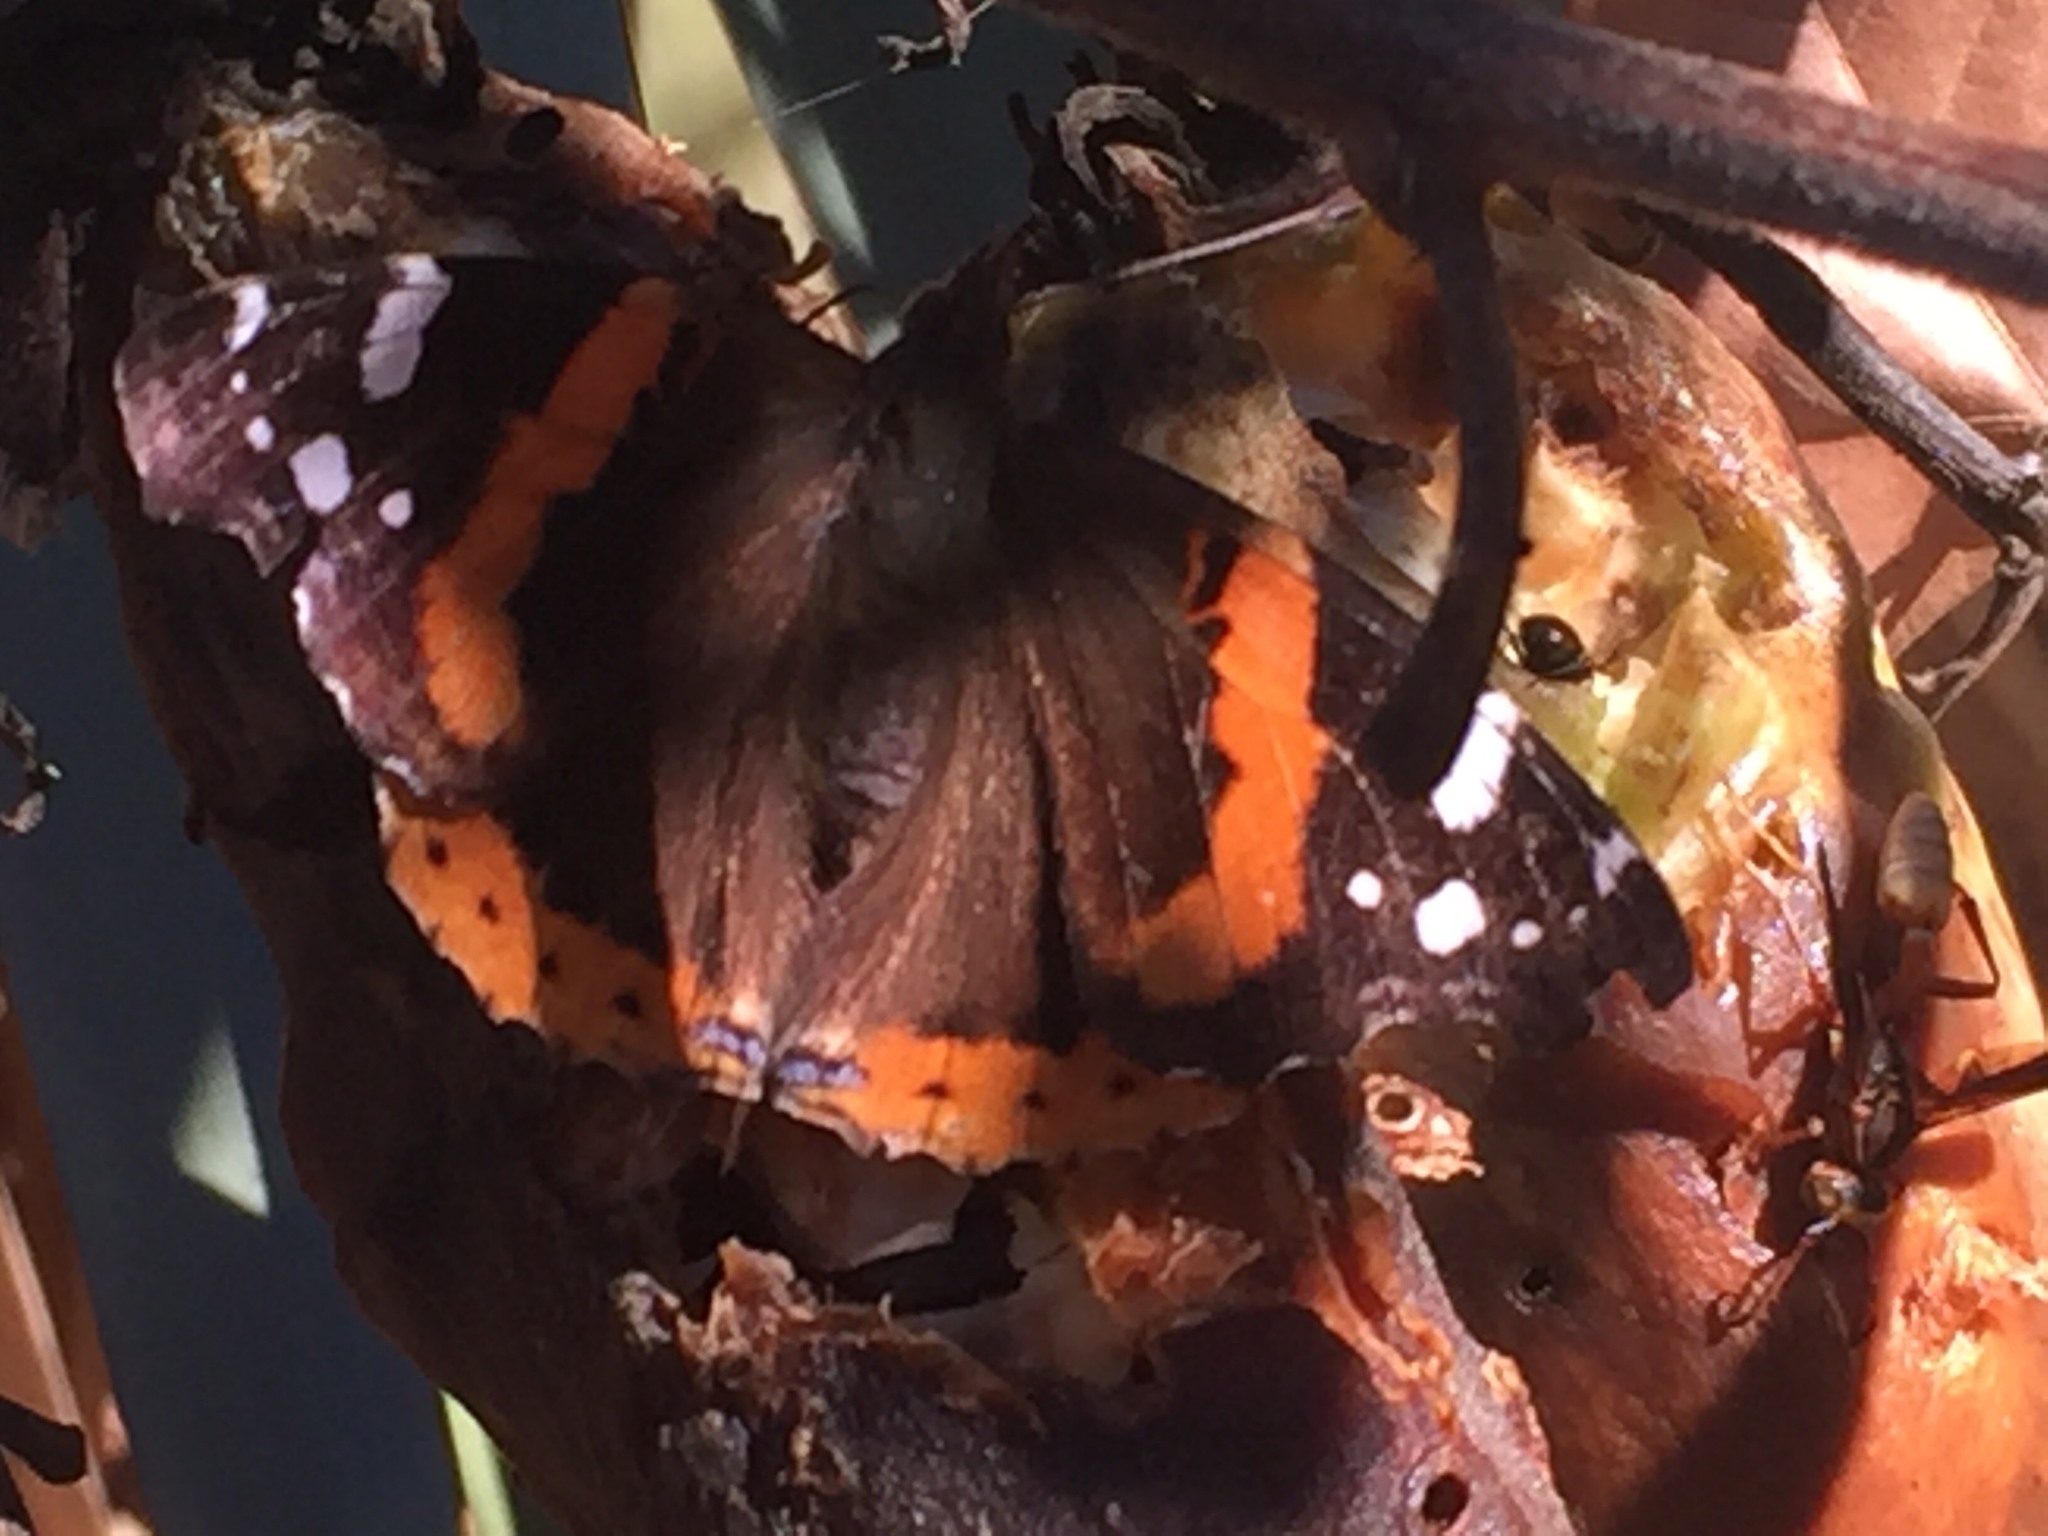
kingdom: Animalia
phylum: Arthropoda
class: Insecta
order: Lepidoptera
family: Nymphalidae
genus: Vanessa
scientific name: Vanessa atalanta
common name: Red admiral
